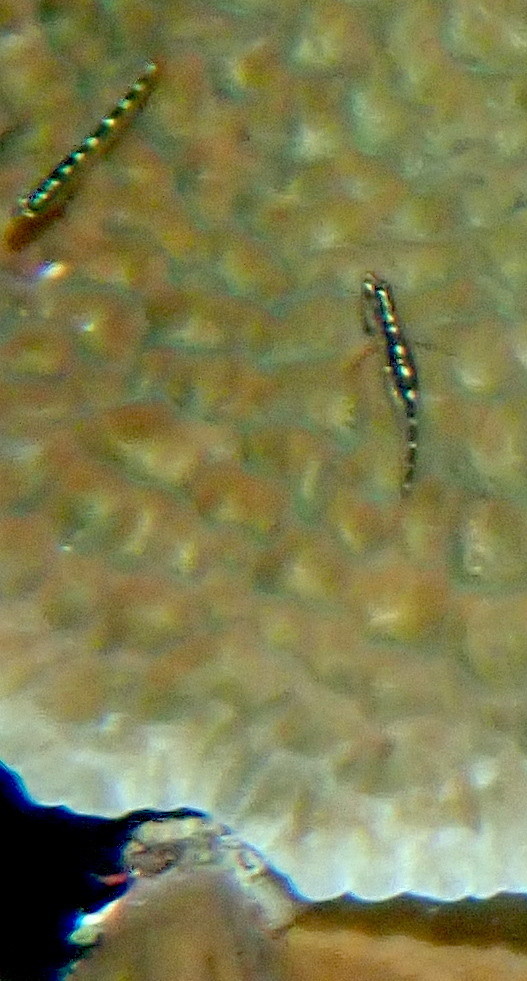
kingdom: Animalia
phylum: Chordata
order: Perciformes
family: Gobiidae
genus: Eviota
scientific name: Eviota sebreei
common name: Sebree's pygmy goby
